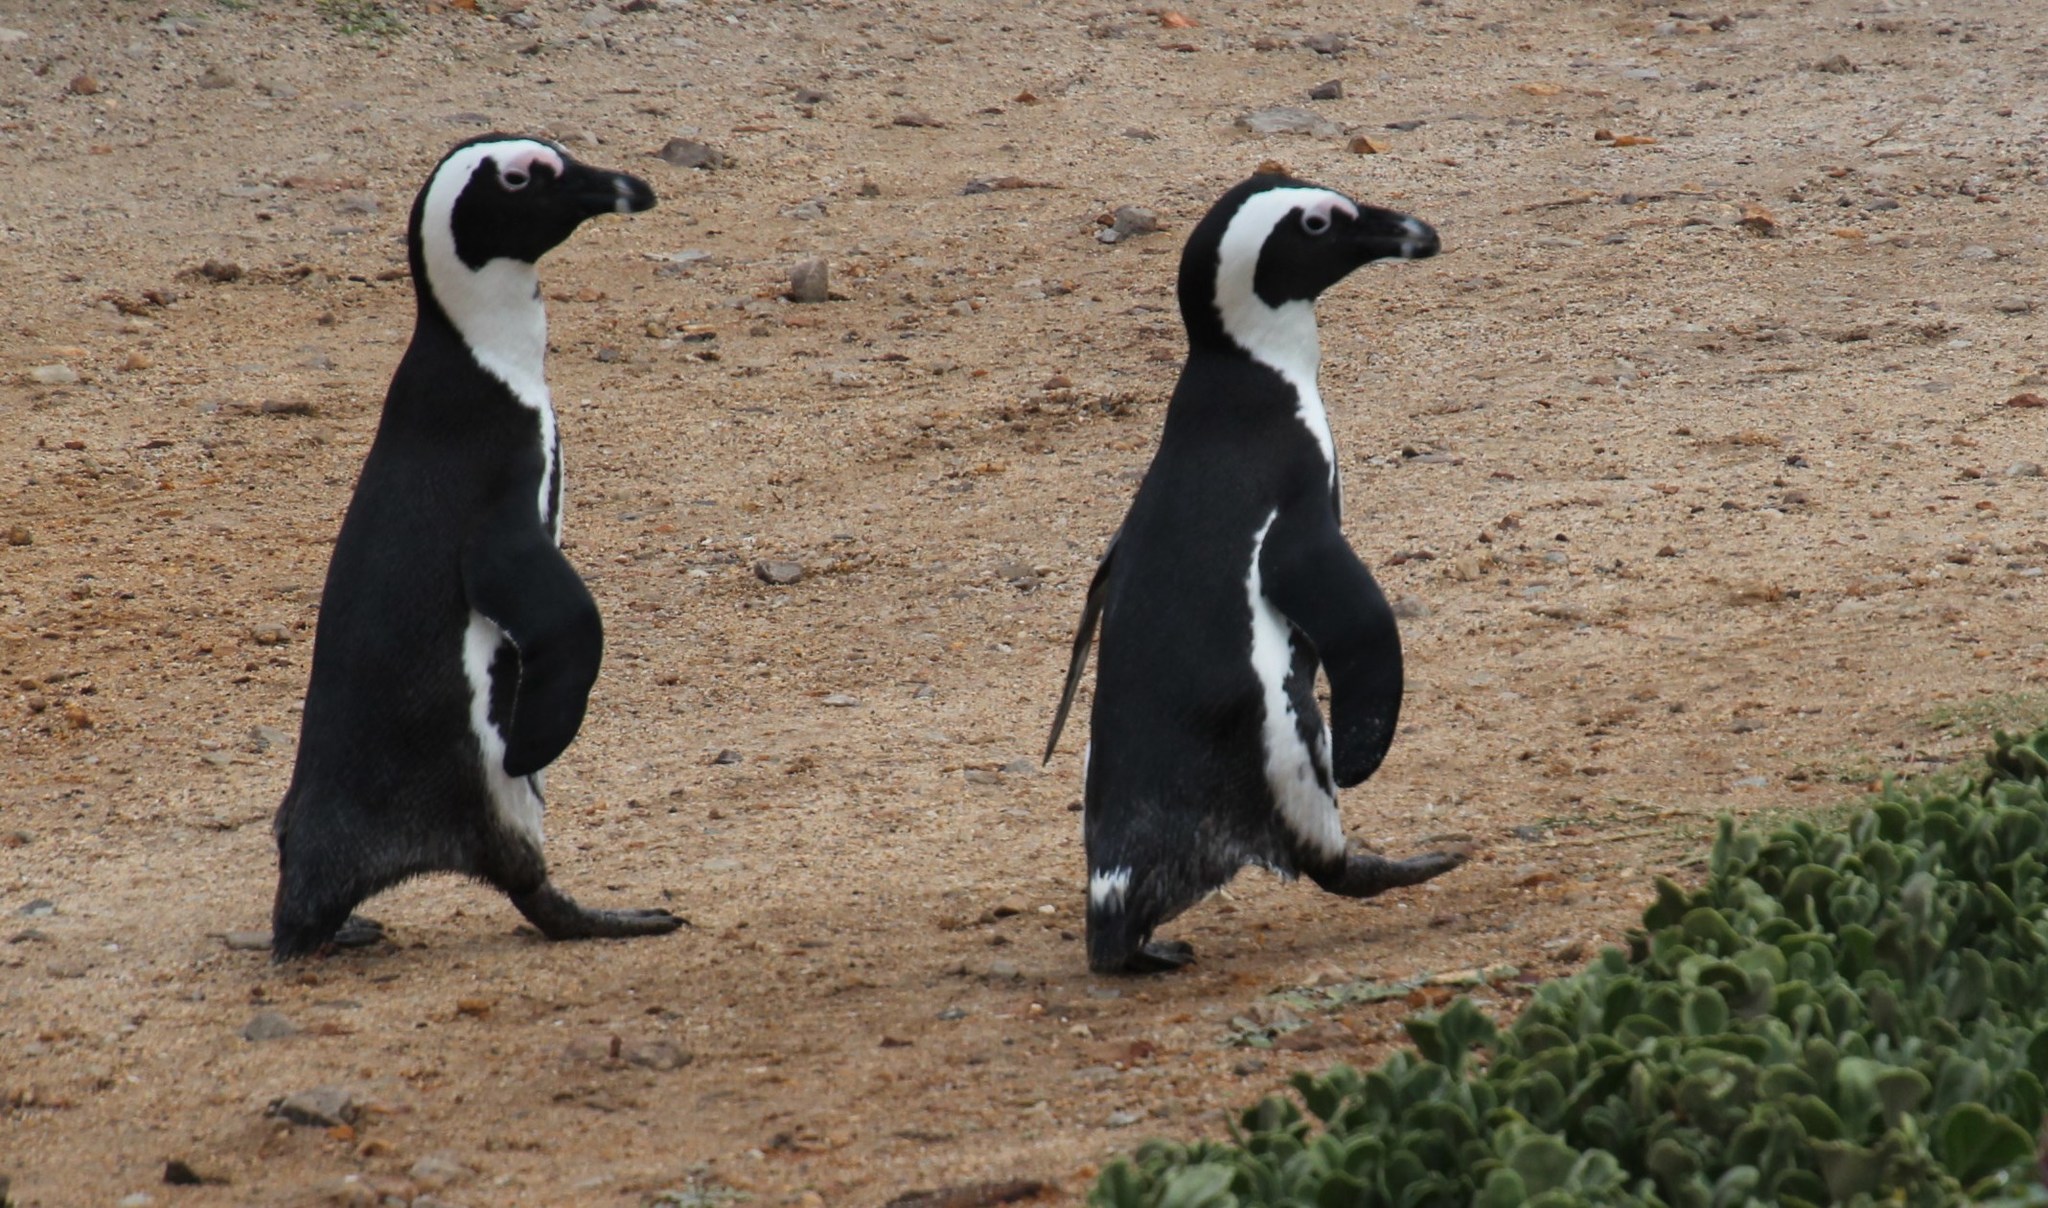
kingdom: Animalia
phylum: Chordata
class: Aves
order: Sphenisciformes
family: Spheniscidae
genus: Spheniscus
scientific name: Spheniscus demersus
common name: African penguin
